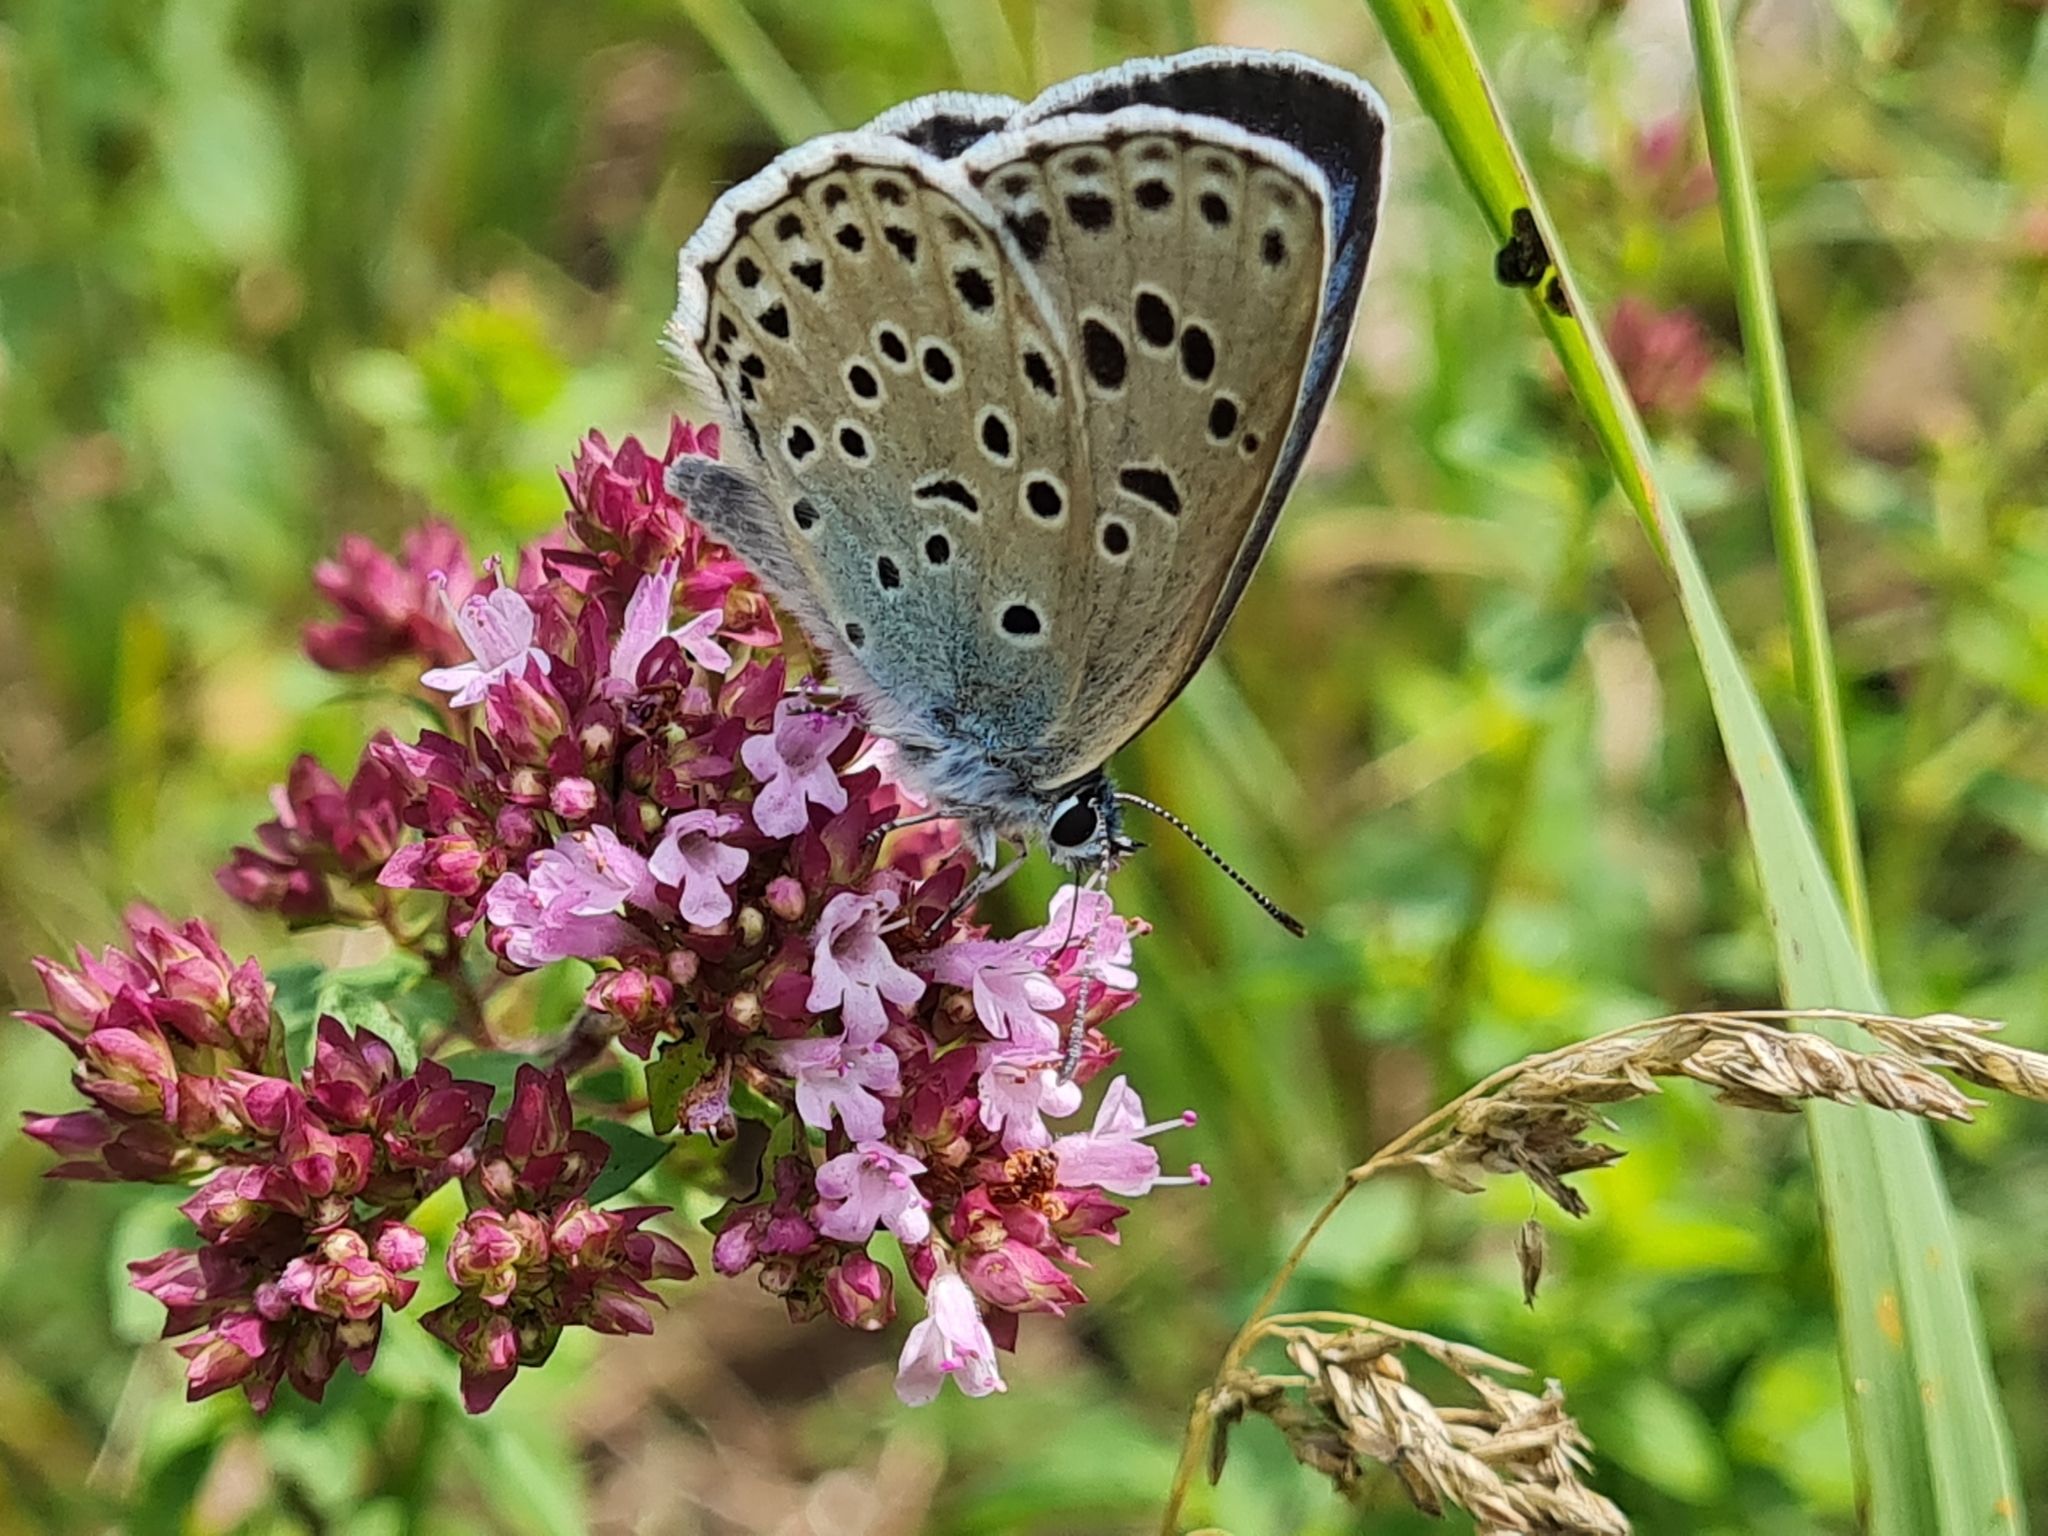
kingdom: Animalia
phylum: Arthropoda
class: Insecta
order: Lepidoptera
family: Lycaenidae
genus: Maculinea
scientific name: Maculinea arion
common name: Large blue
